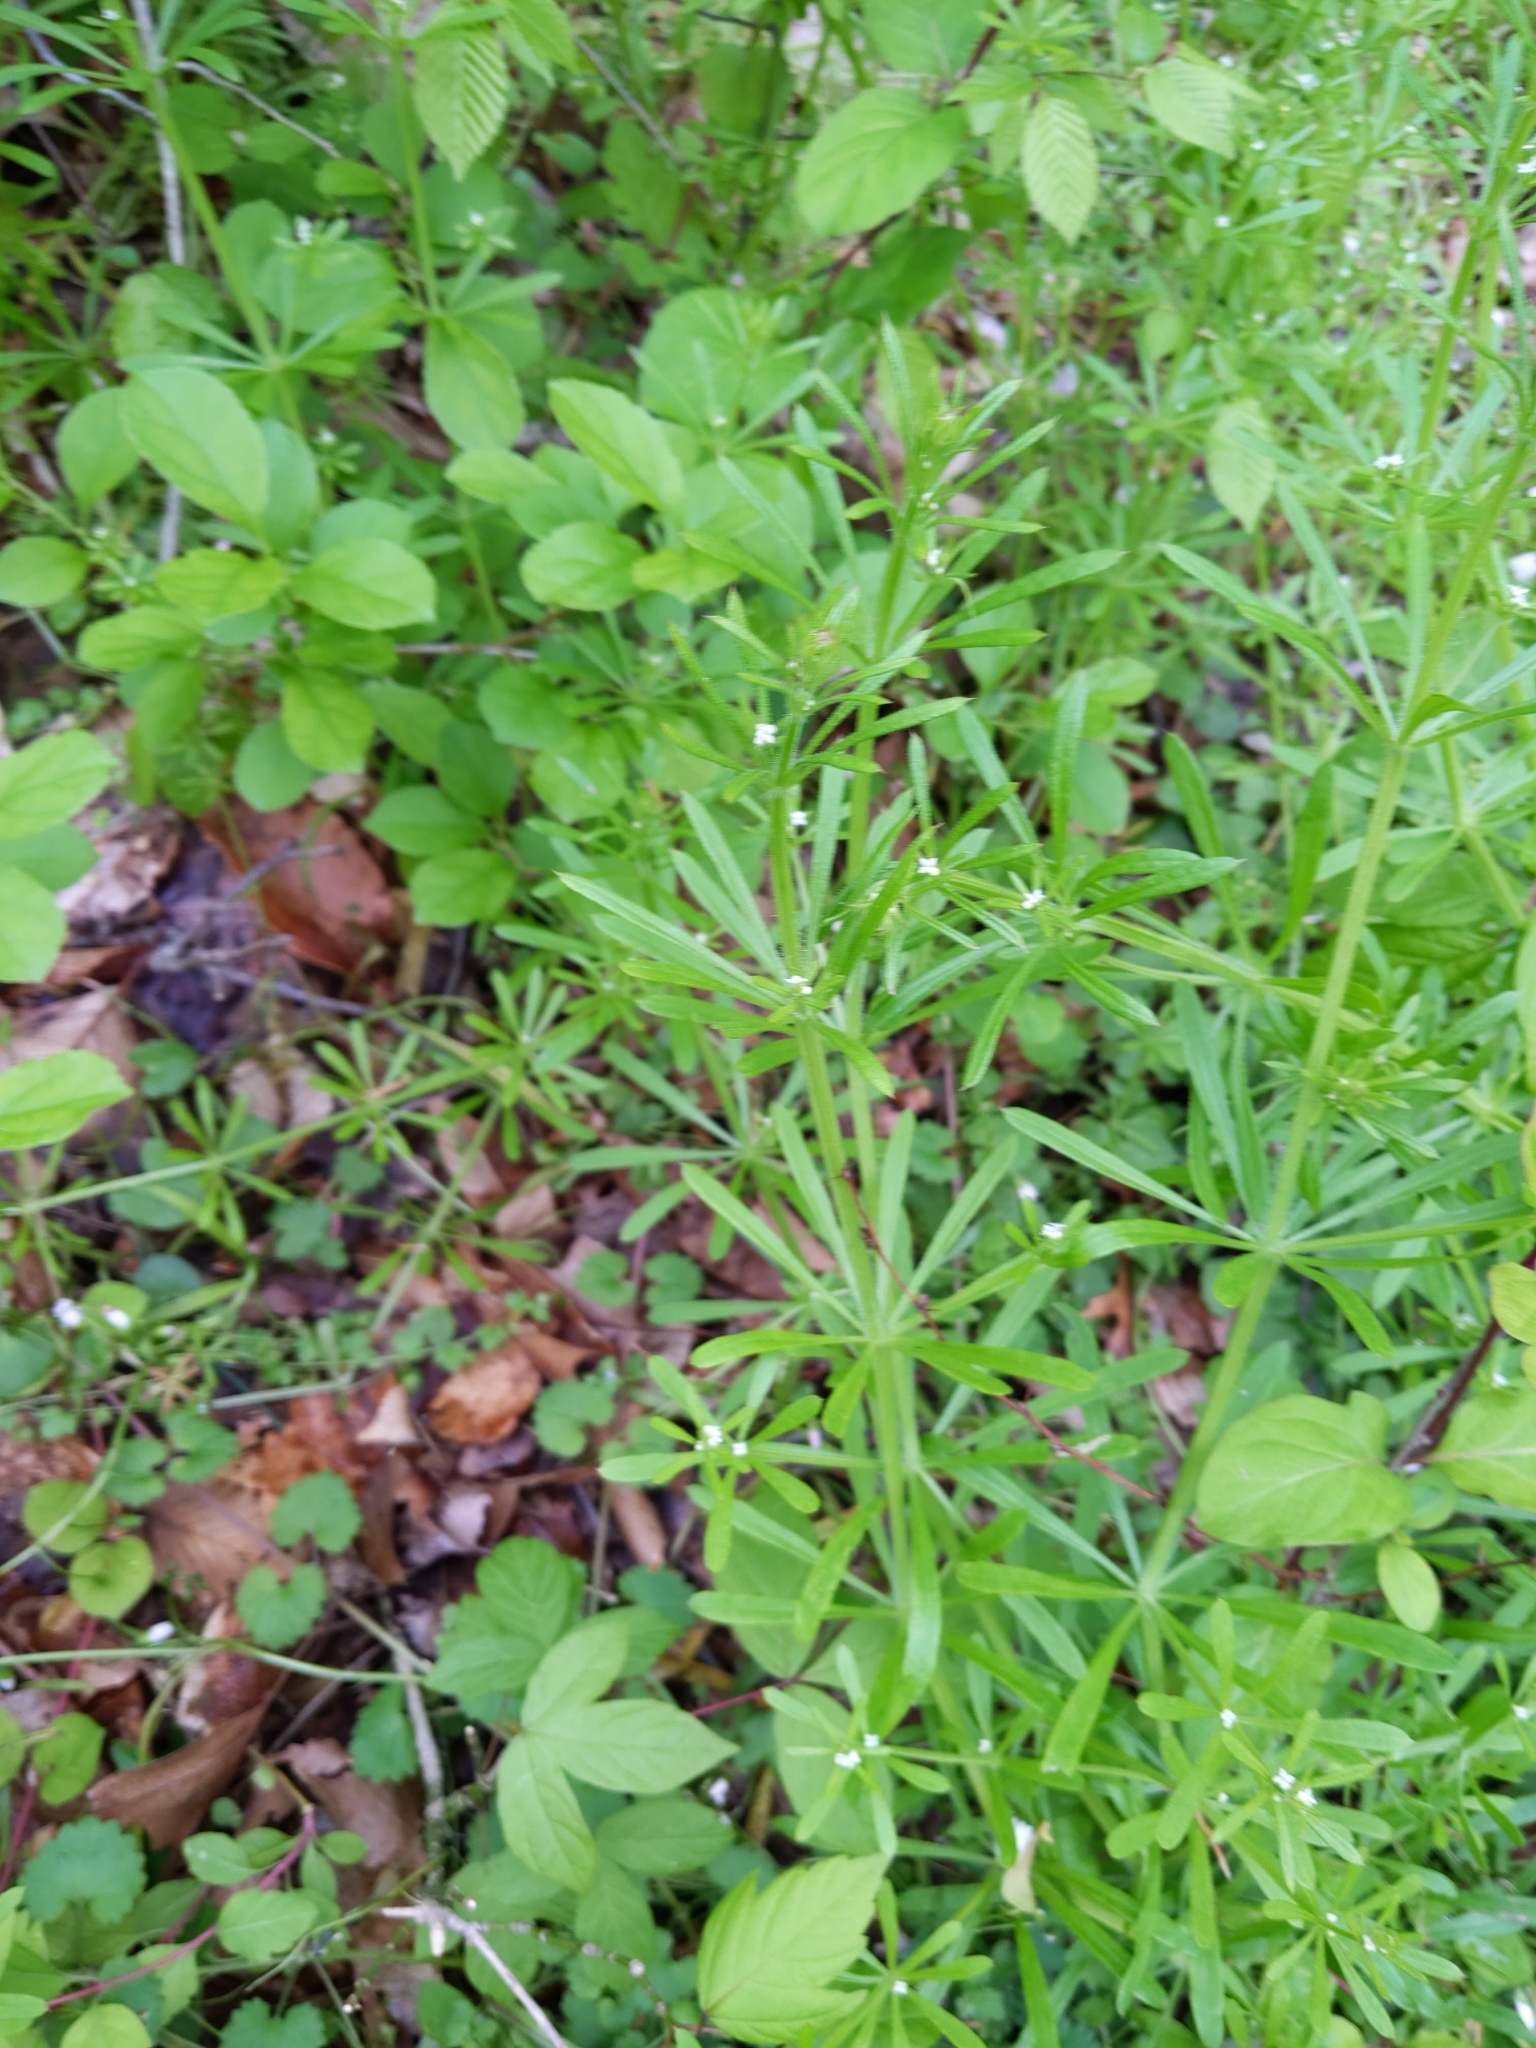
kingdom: Plantae
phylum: Tracheophyta
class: Magnoliopsida
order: Gentianales
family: Rubiaceae
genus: Galium
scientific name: Galium aparine
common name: Cleavers
